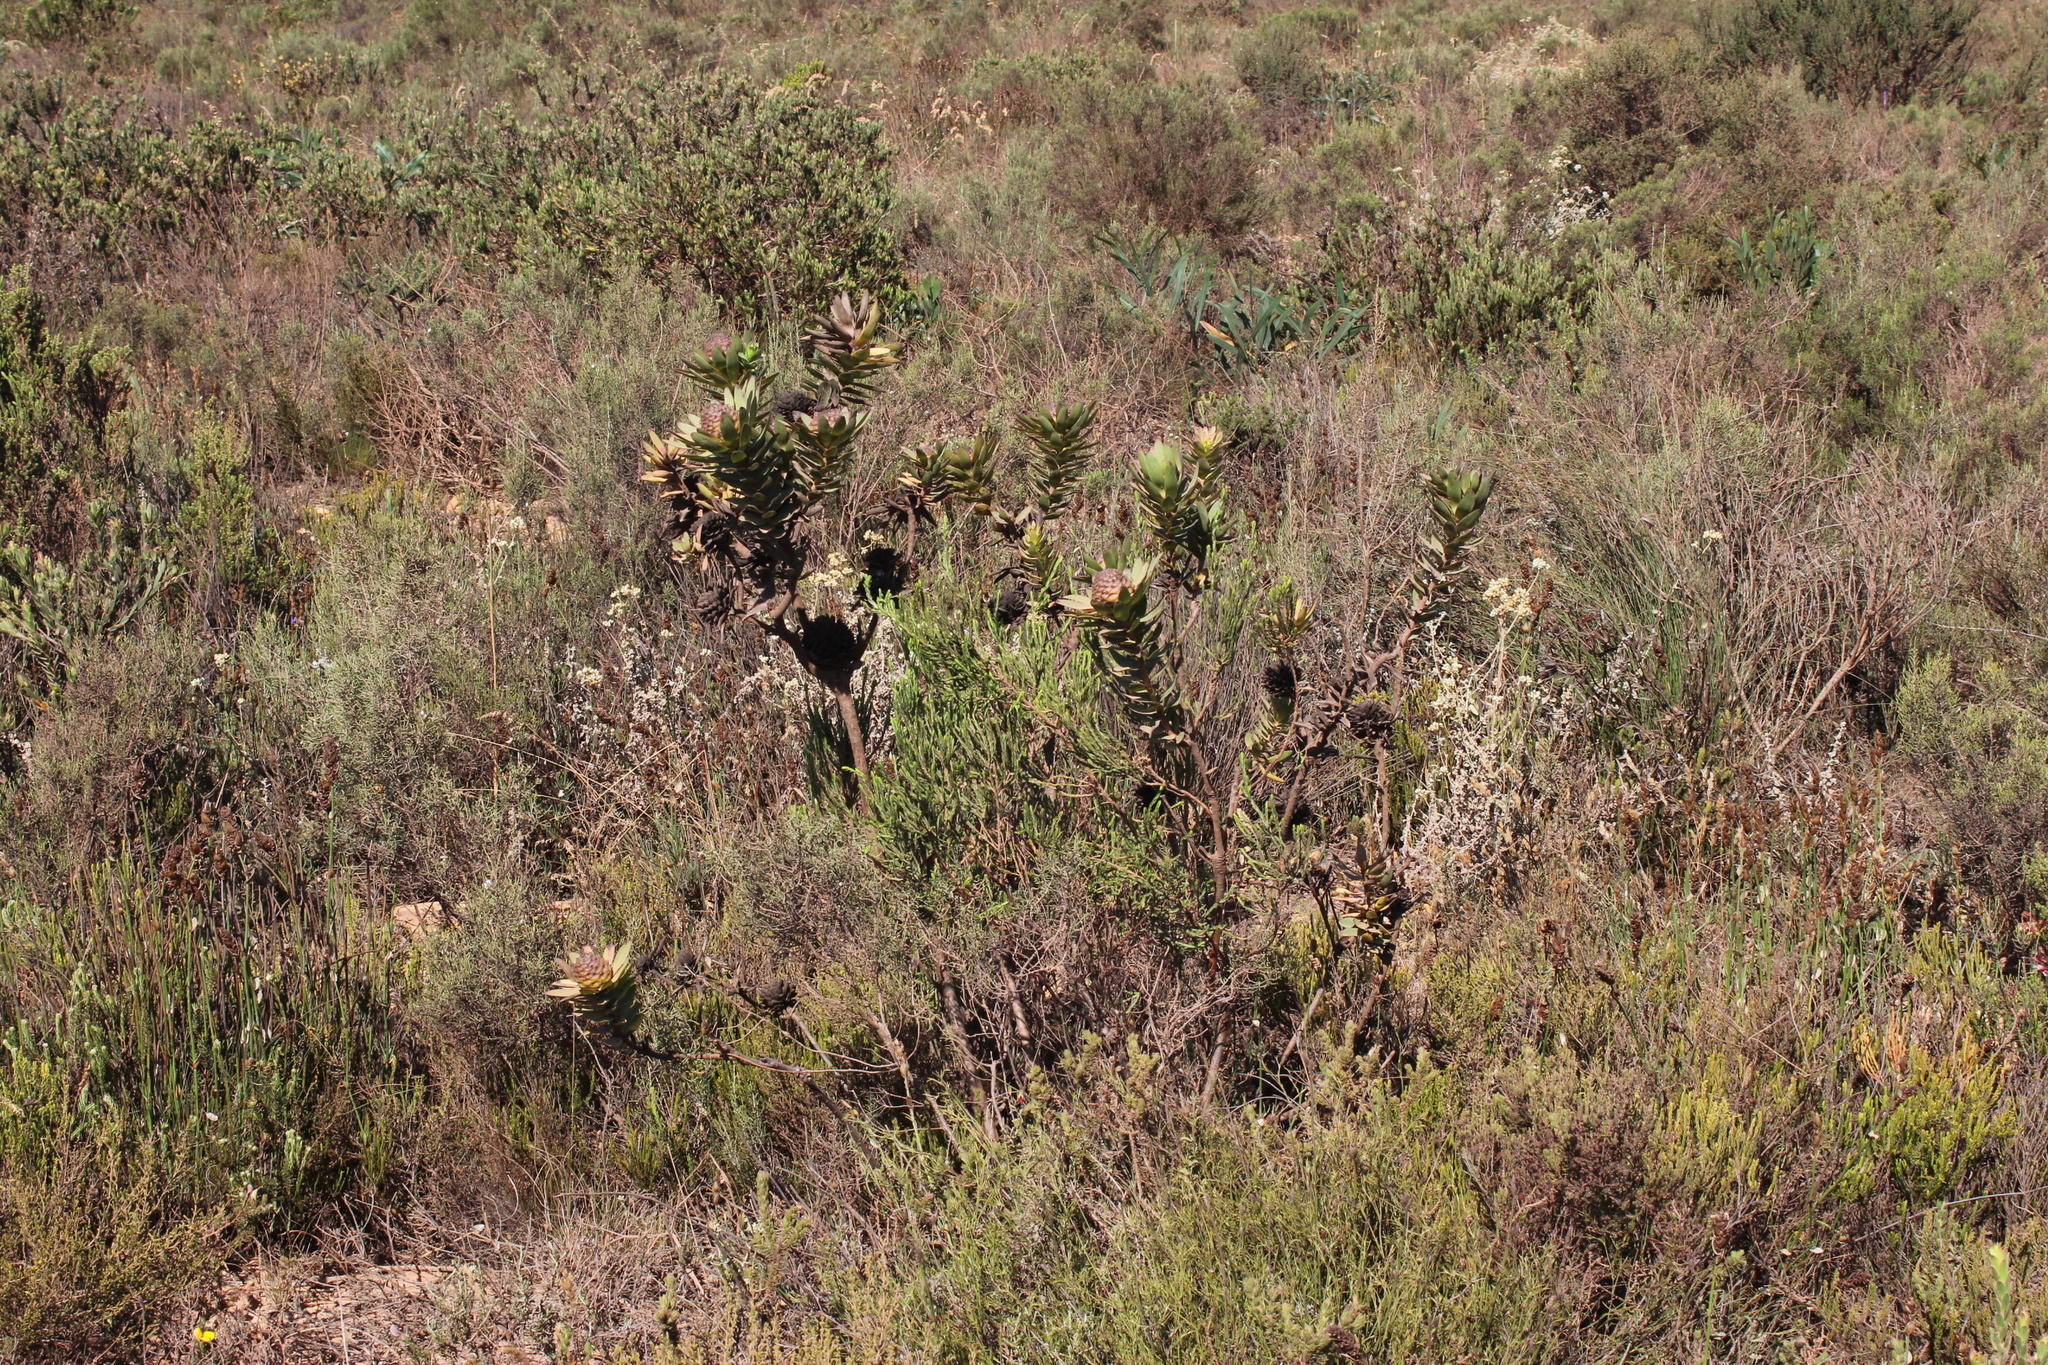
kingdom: Plantae
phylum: Tracheophyta
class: Magnoliopsida
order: Proteales
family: Proteaceae
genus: Leucadendron
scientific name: Leucadendron elimense
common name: Elim conebush
